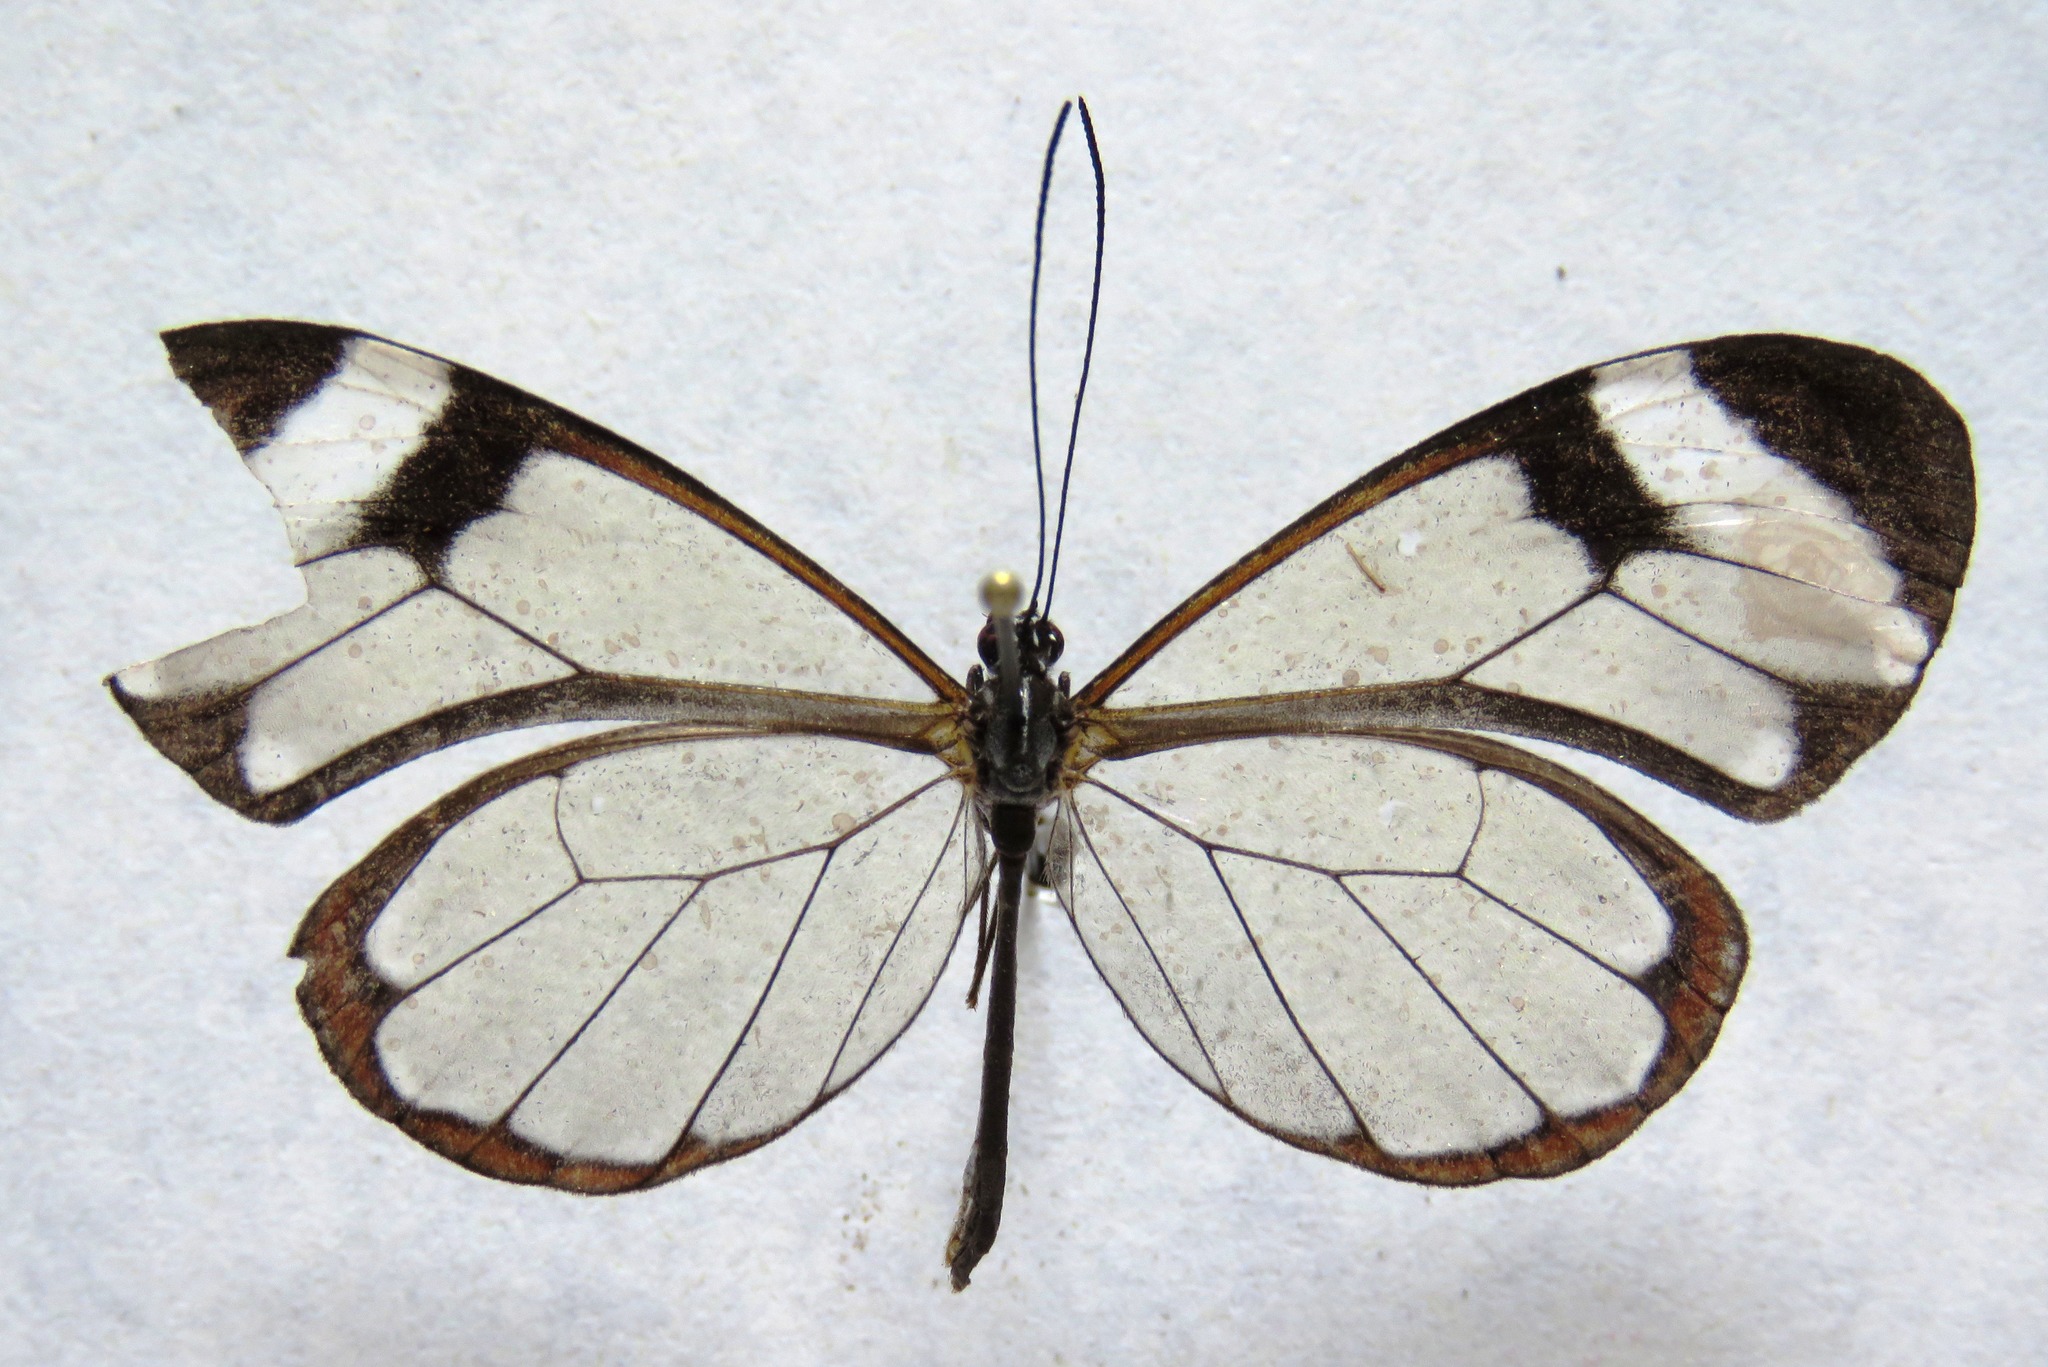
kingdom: Animalia
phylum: Arthropoda
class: Insecta
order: Lepidoptera
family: Nymphalidae
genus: Greta
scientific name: Greta morgane
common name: Thick-tipped greta
